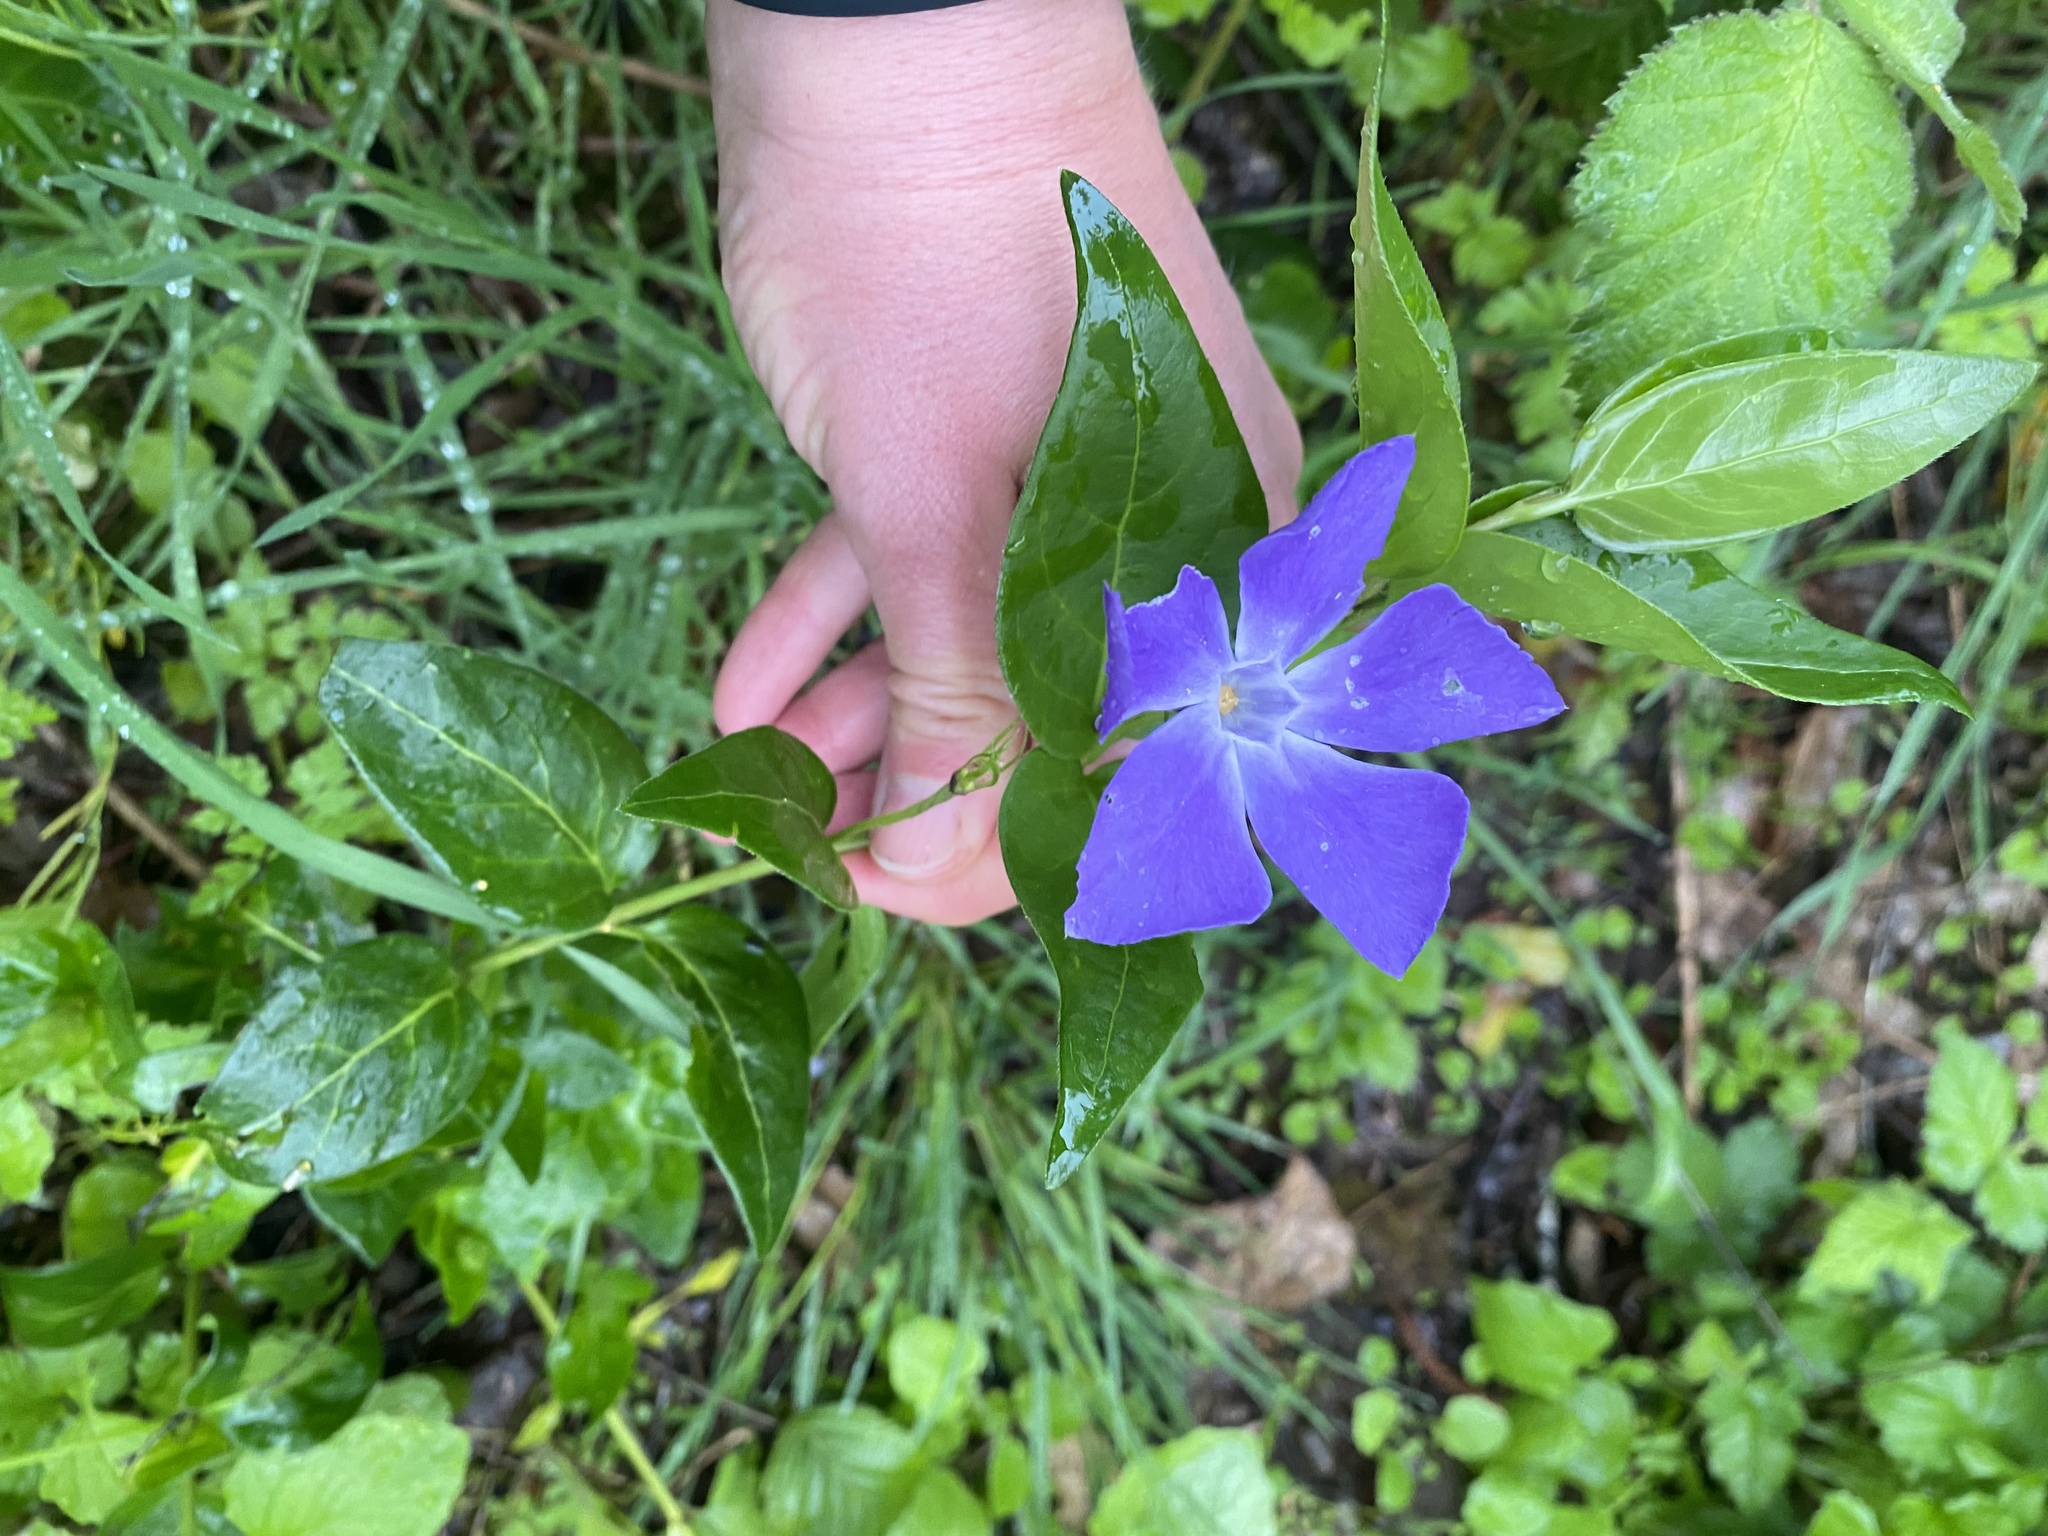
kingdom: Plantae
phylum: Tracheophyta
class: Magnoliopsida
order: Gentianales
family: Apocynaceae
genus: Vinca
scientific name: Vinca major
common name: Greater periwinkle
